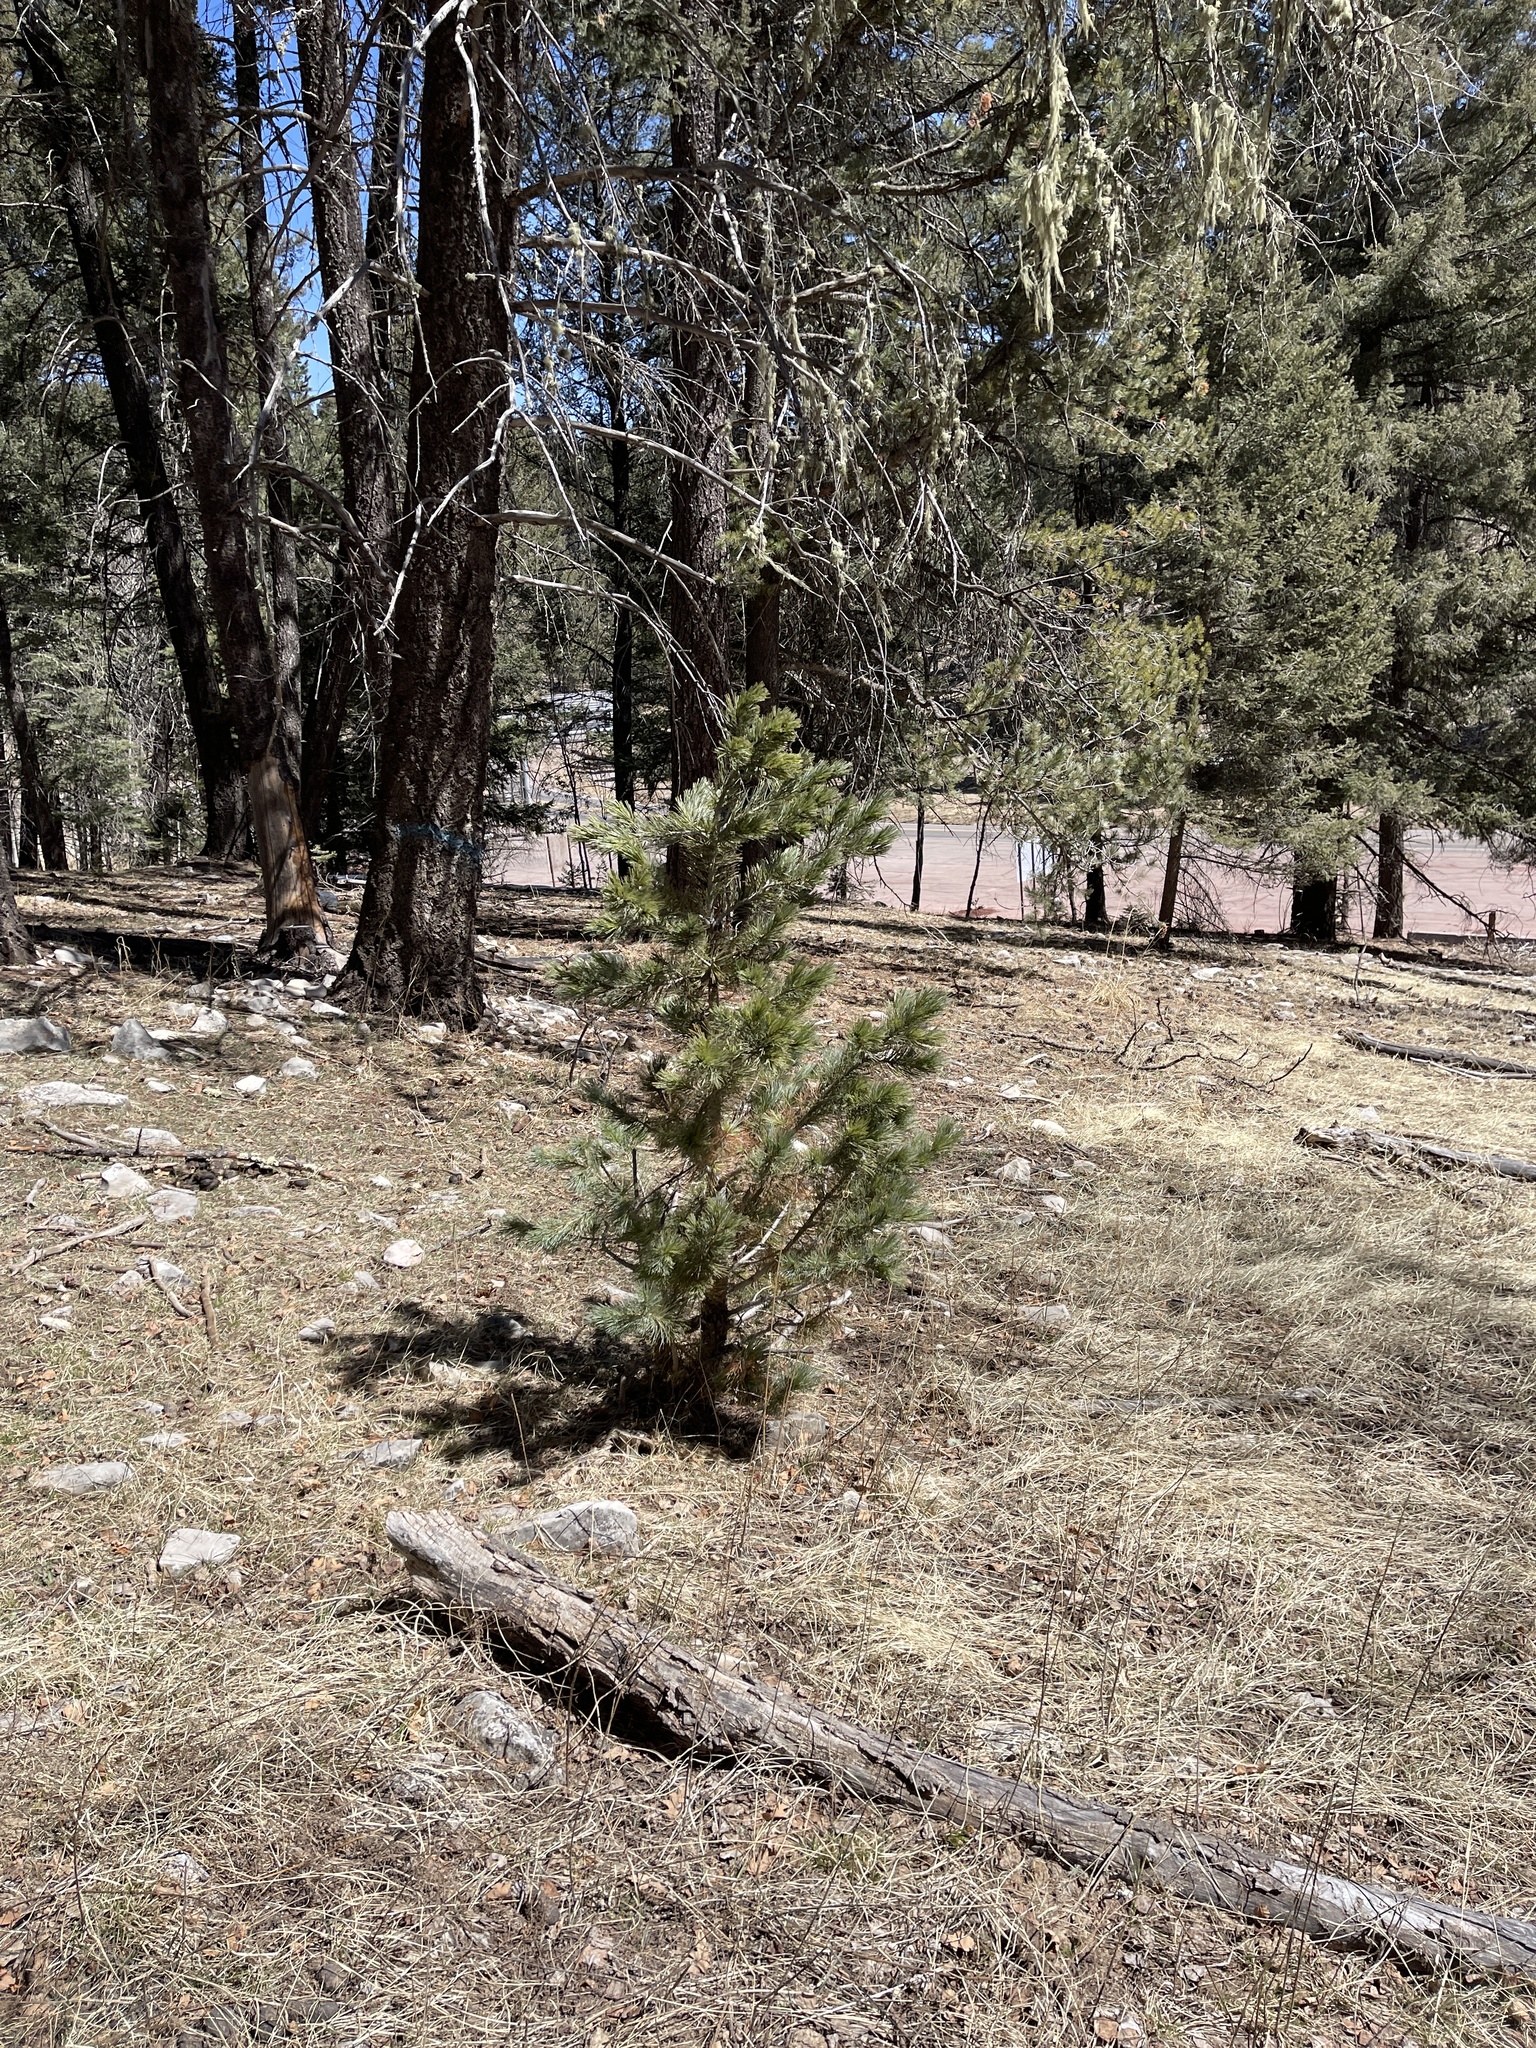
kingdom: Plantae
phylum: Tracheophyta
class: Pinopsida
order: Pinales
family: Pinaceae
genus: Pinus
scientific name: Pinus strobiformis
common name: Southwestern white pine
